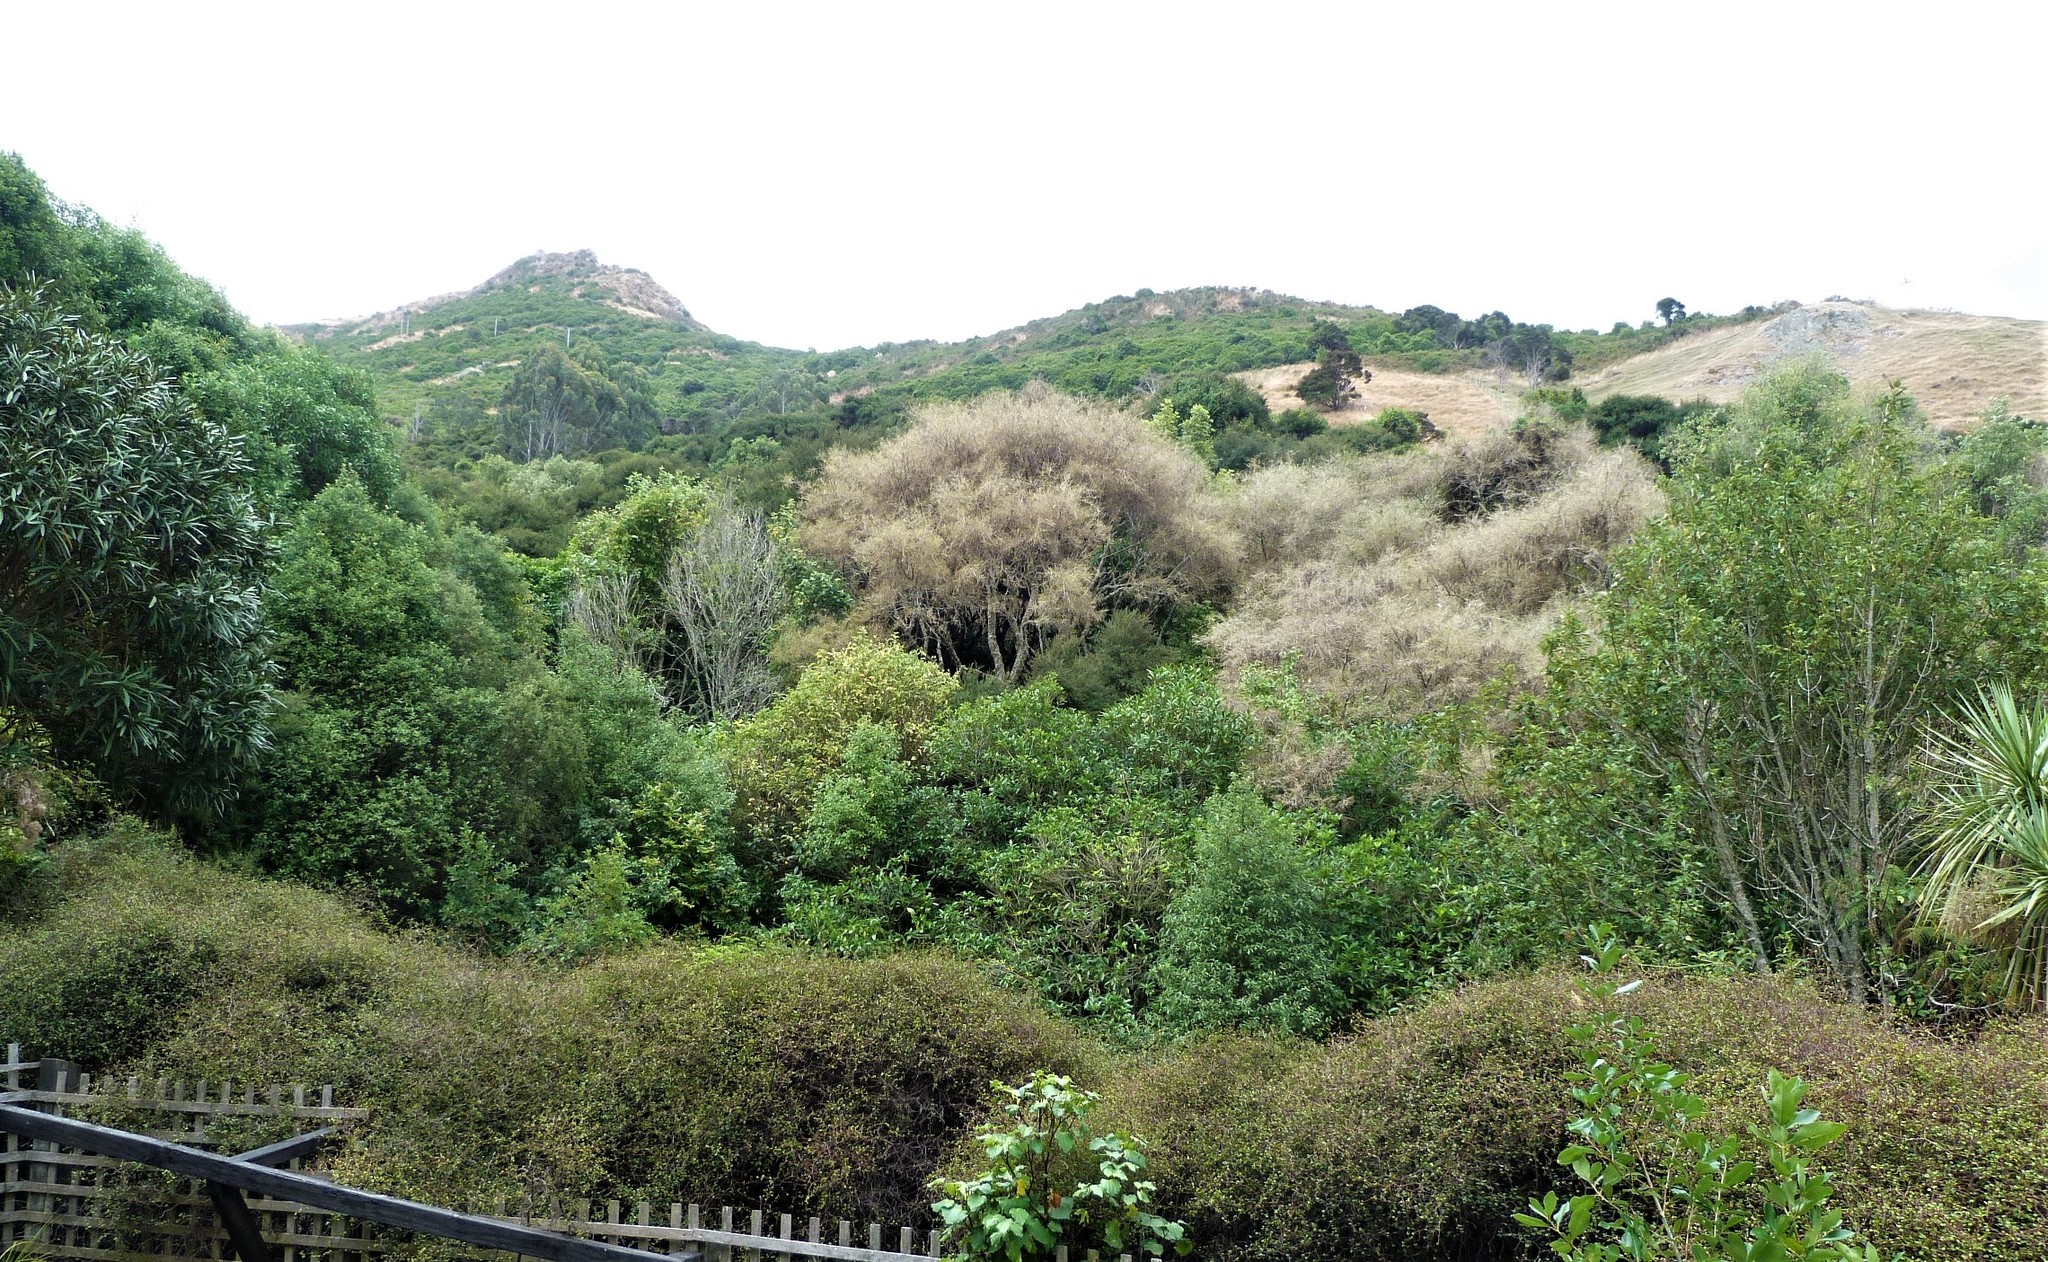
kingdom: Animalia
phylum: Arthropoda
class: Insecta
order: Lepidoptera
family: Crambidae
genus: Uresiphita
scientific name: Uresiphita
